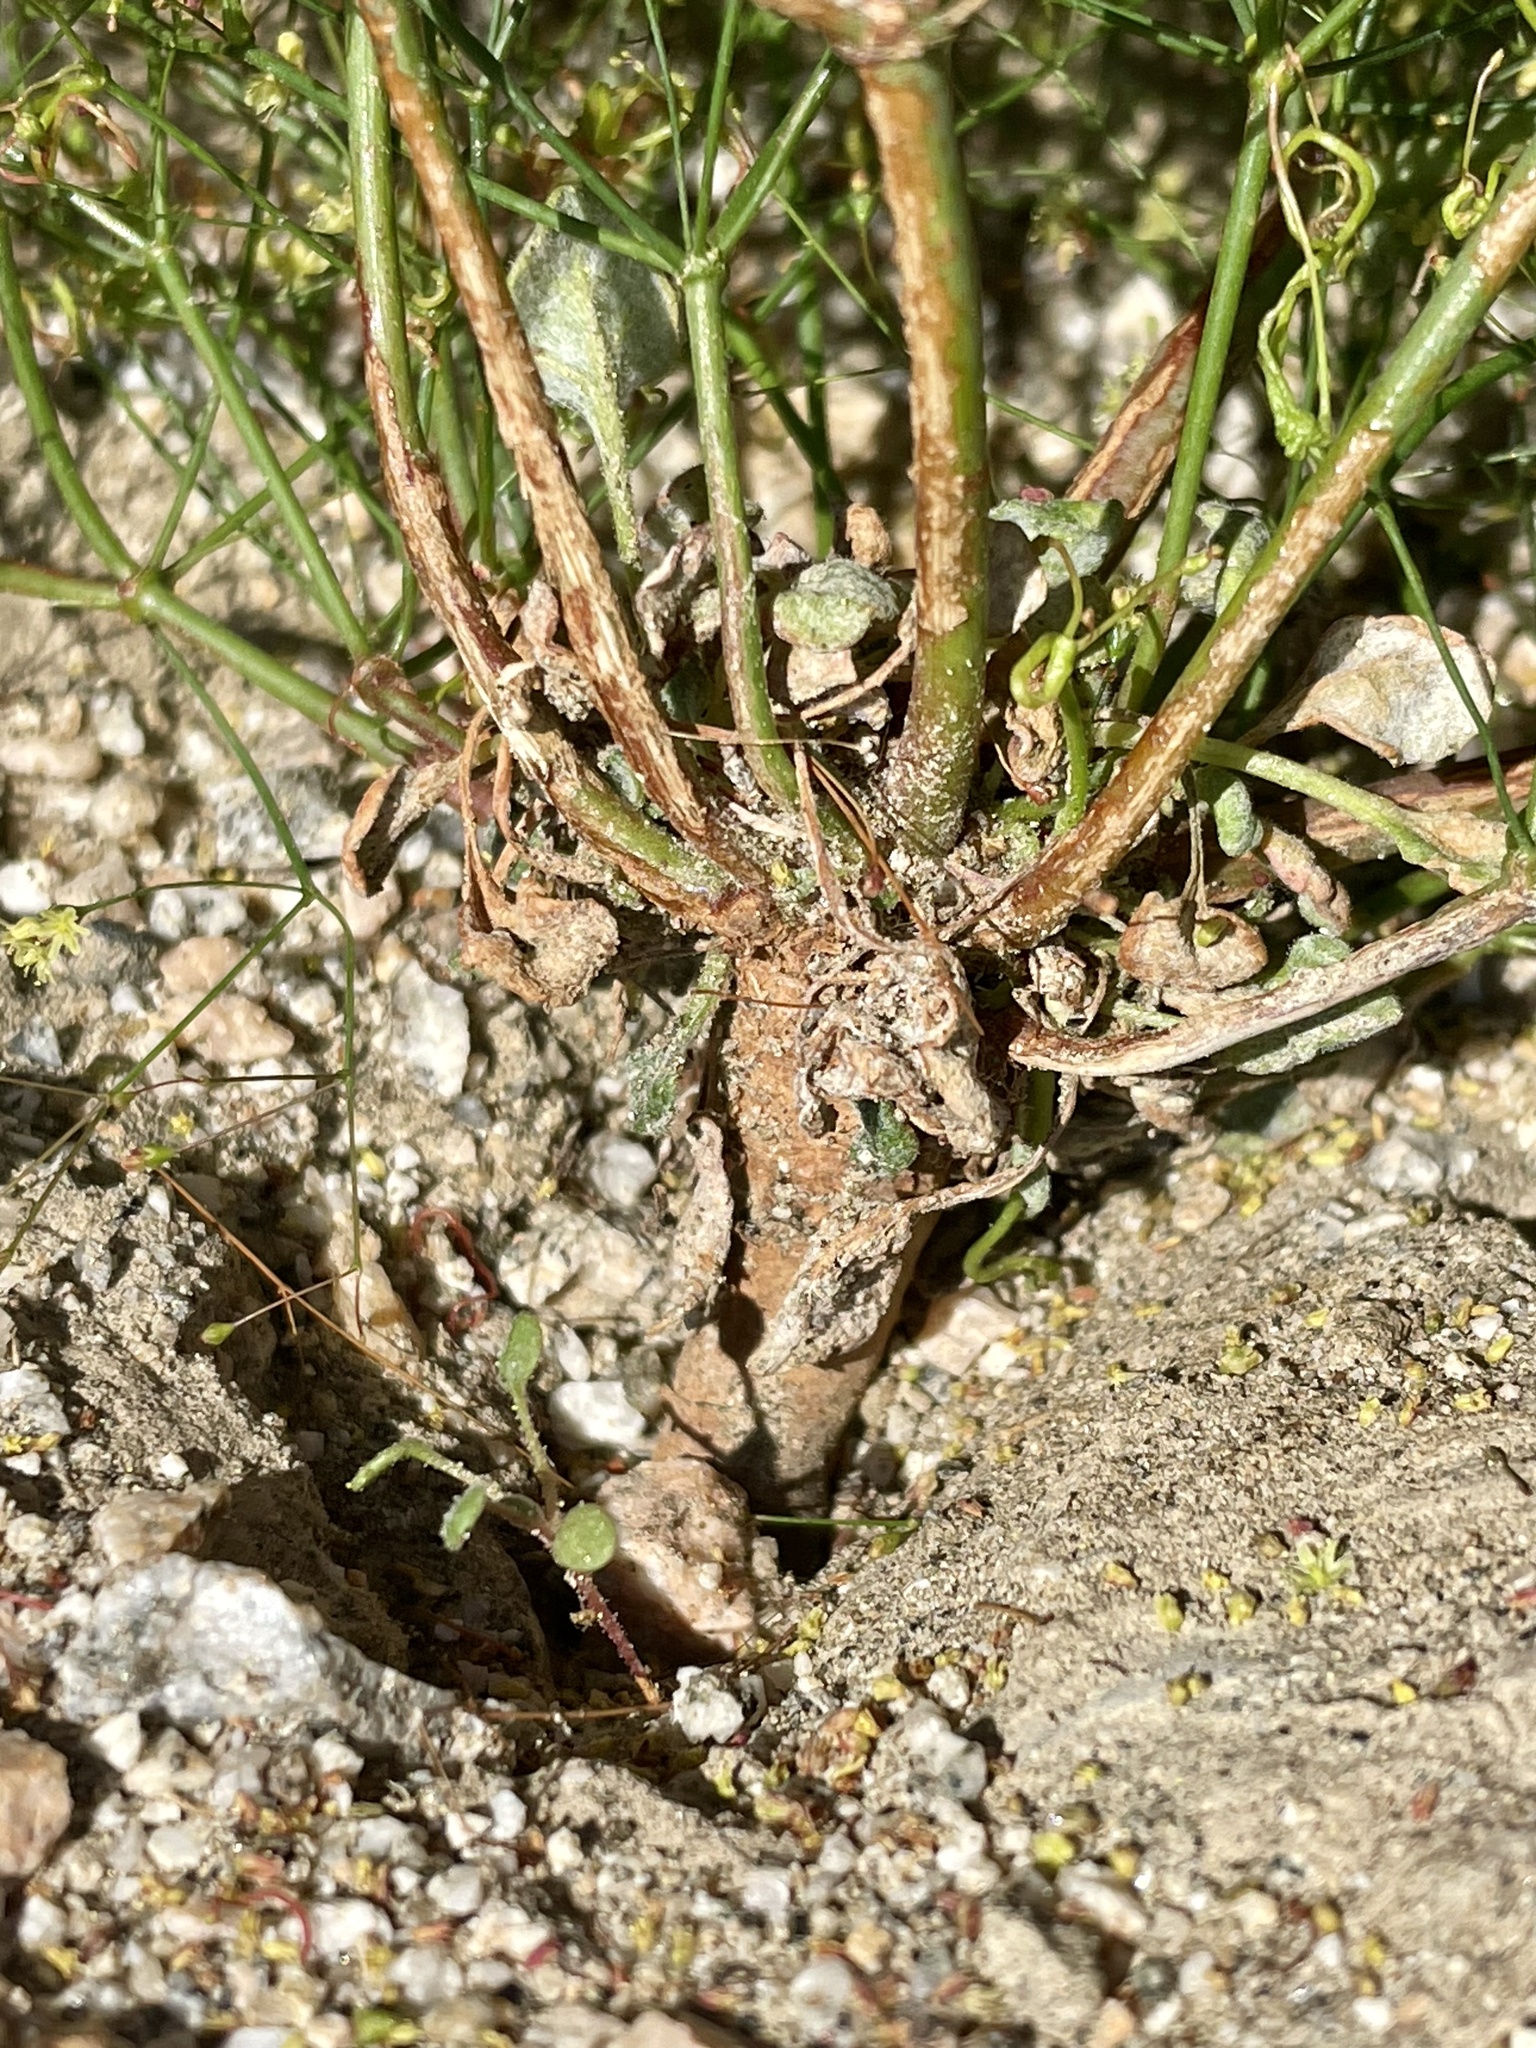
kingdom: Plantae
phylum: Tracheophyta
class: Magnoliopsida
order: Caryophyllales
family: Polygonaceae
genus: Eriogonum
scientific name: Eriogonum thomasii
